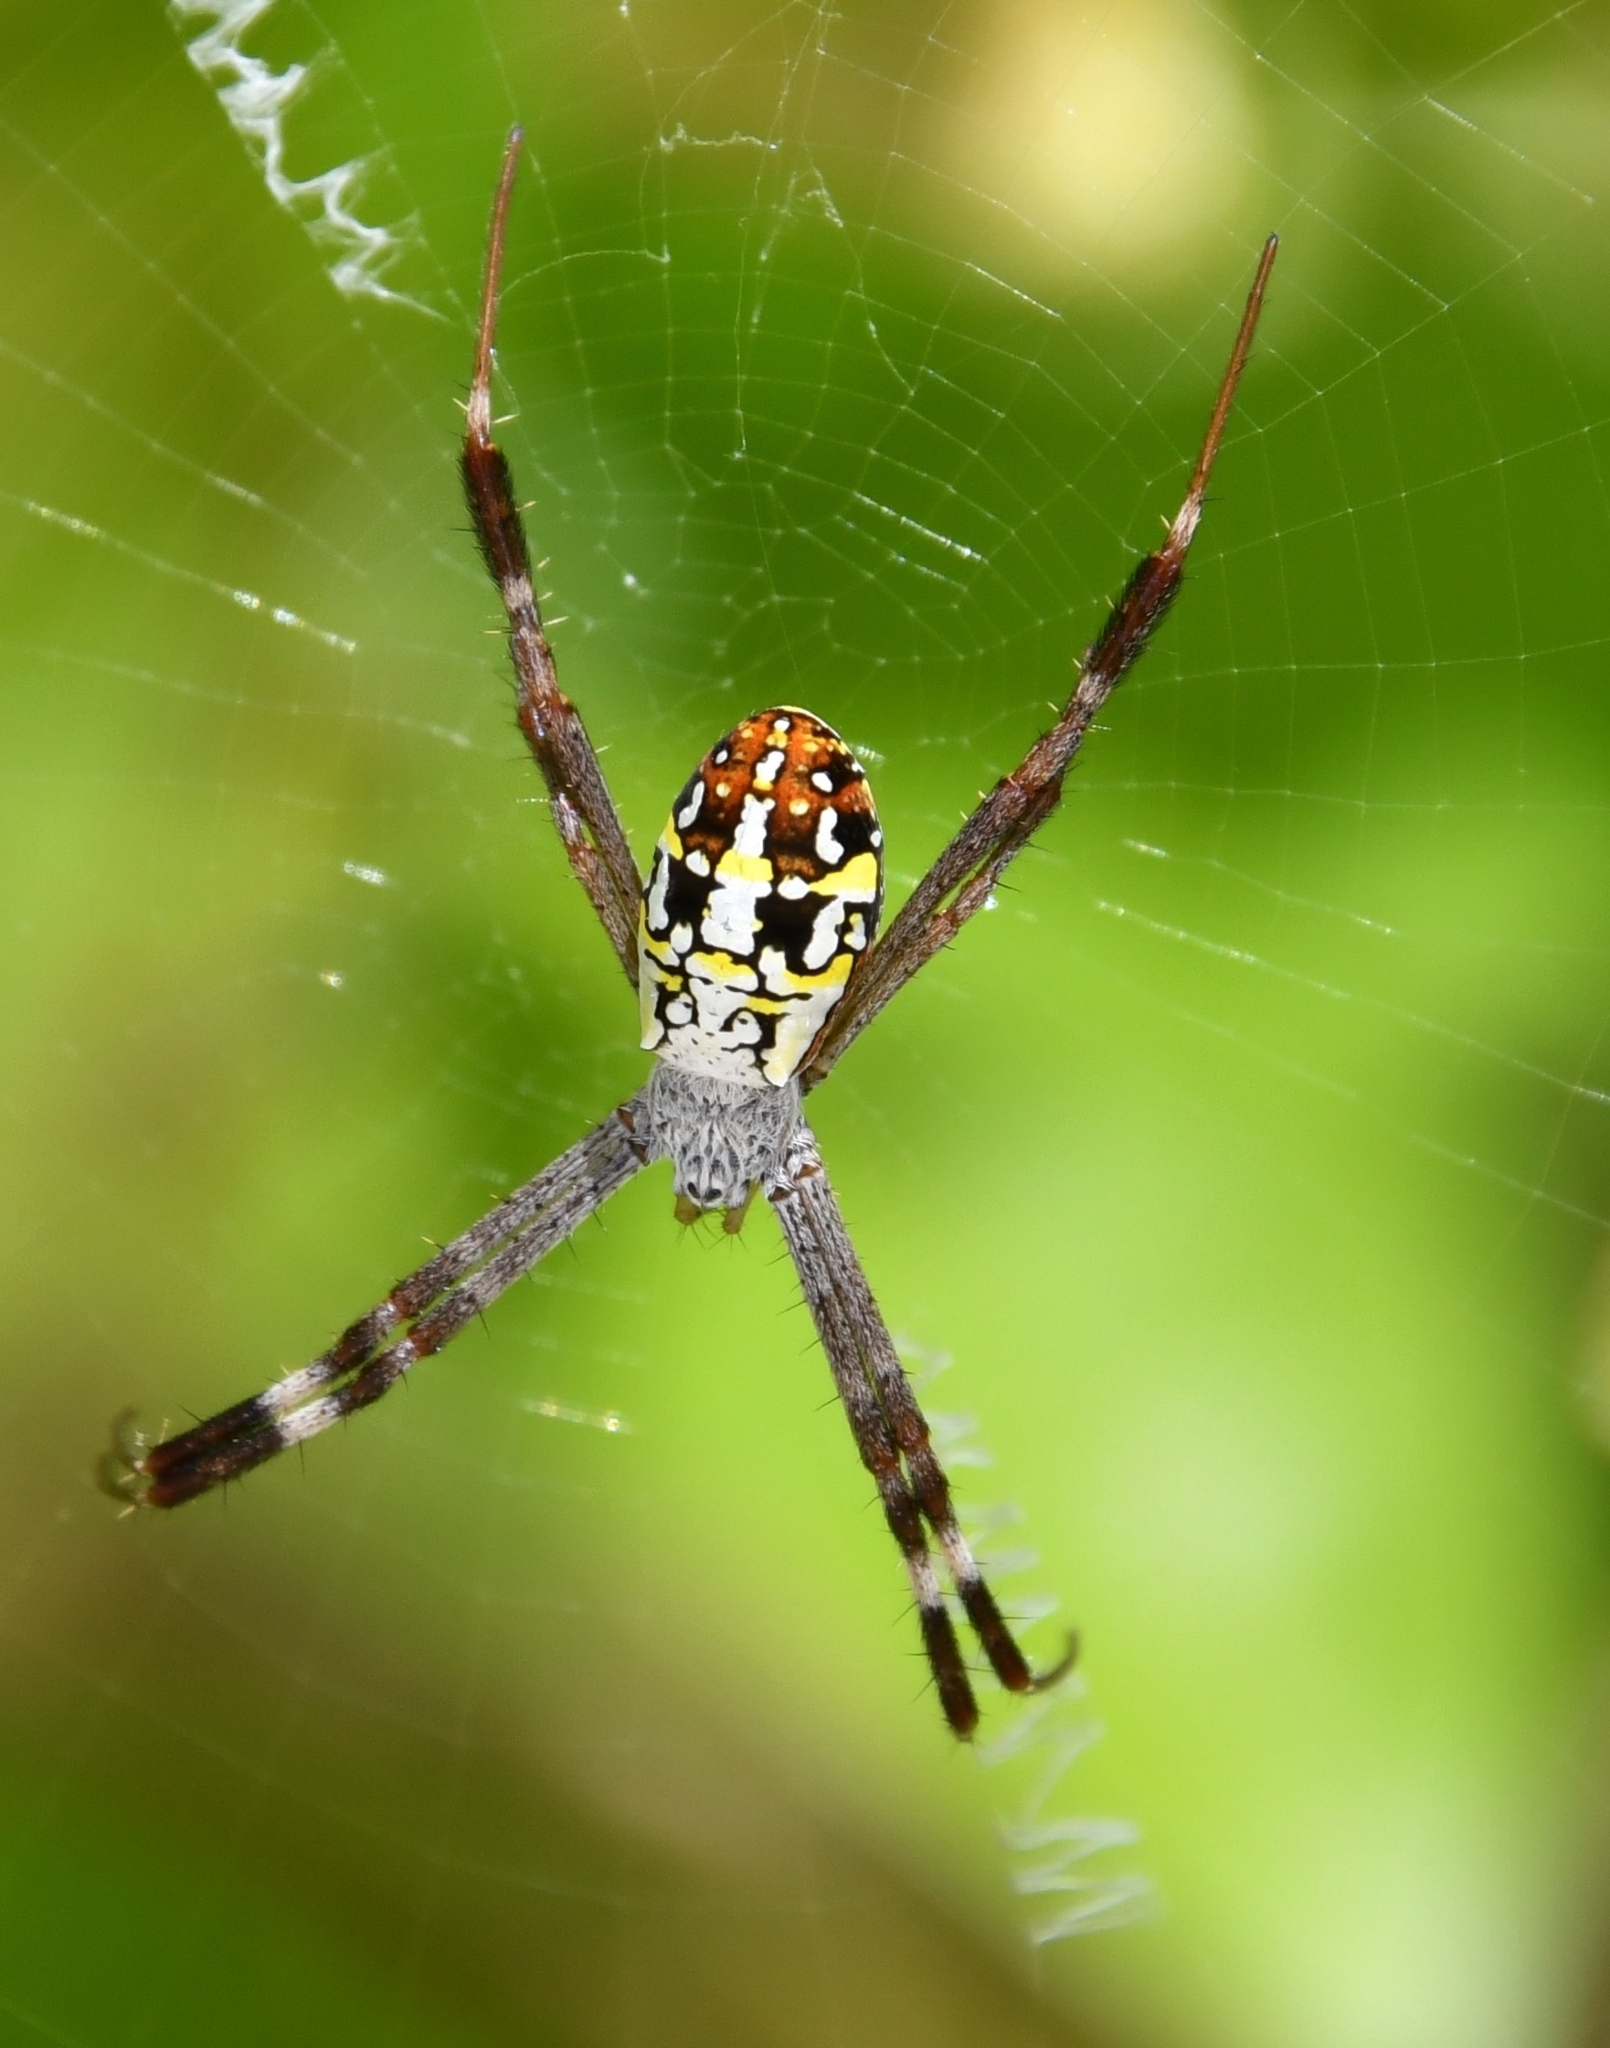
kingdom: Animalia
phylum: Arthropoda
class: Arachnida
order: Araneae
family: Araneidae
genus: Argiope
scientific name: Argiope dang
